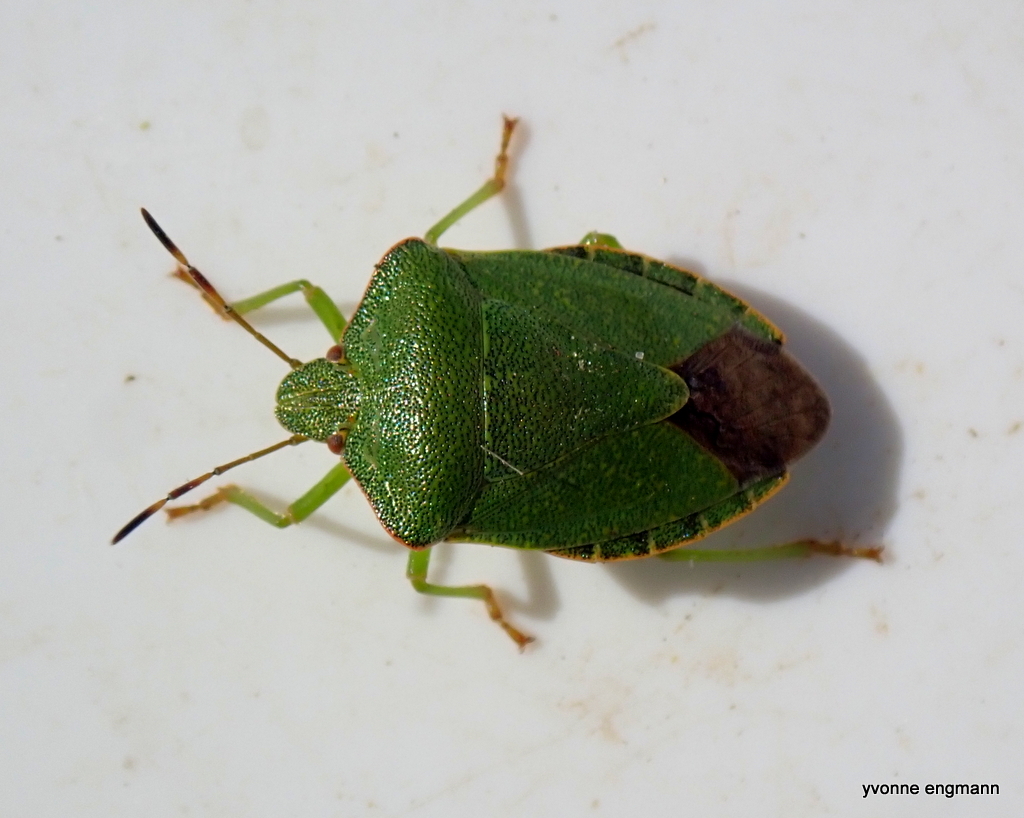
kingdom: Animalia
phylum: Arthropoda
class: Insecta
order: Hemiptera
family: Pentatomidae
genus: Palomena
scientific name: Palomena prasina
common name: Green shieldbug
